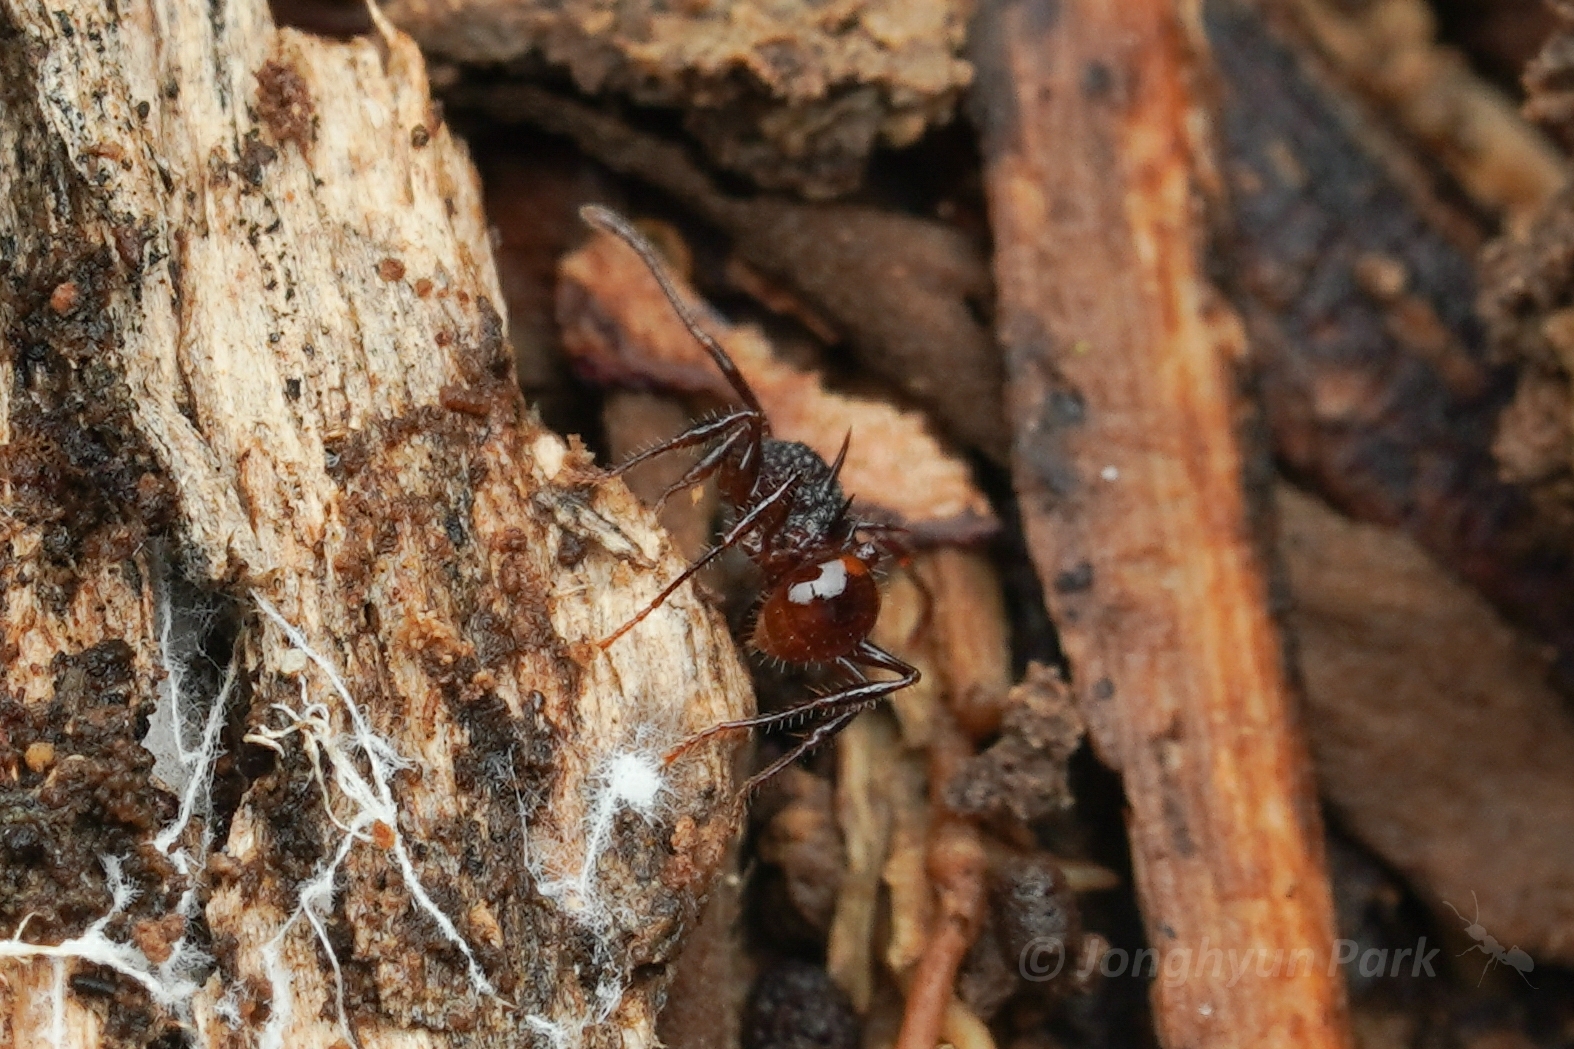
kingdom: Animalia
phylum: Arthropoda
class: Insecta
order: Hymenoptera
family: Formicidae
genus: Acanthomyrmex
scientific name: Acanthomyrmex ferox
